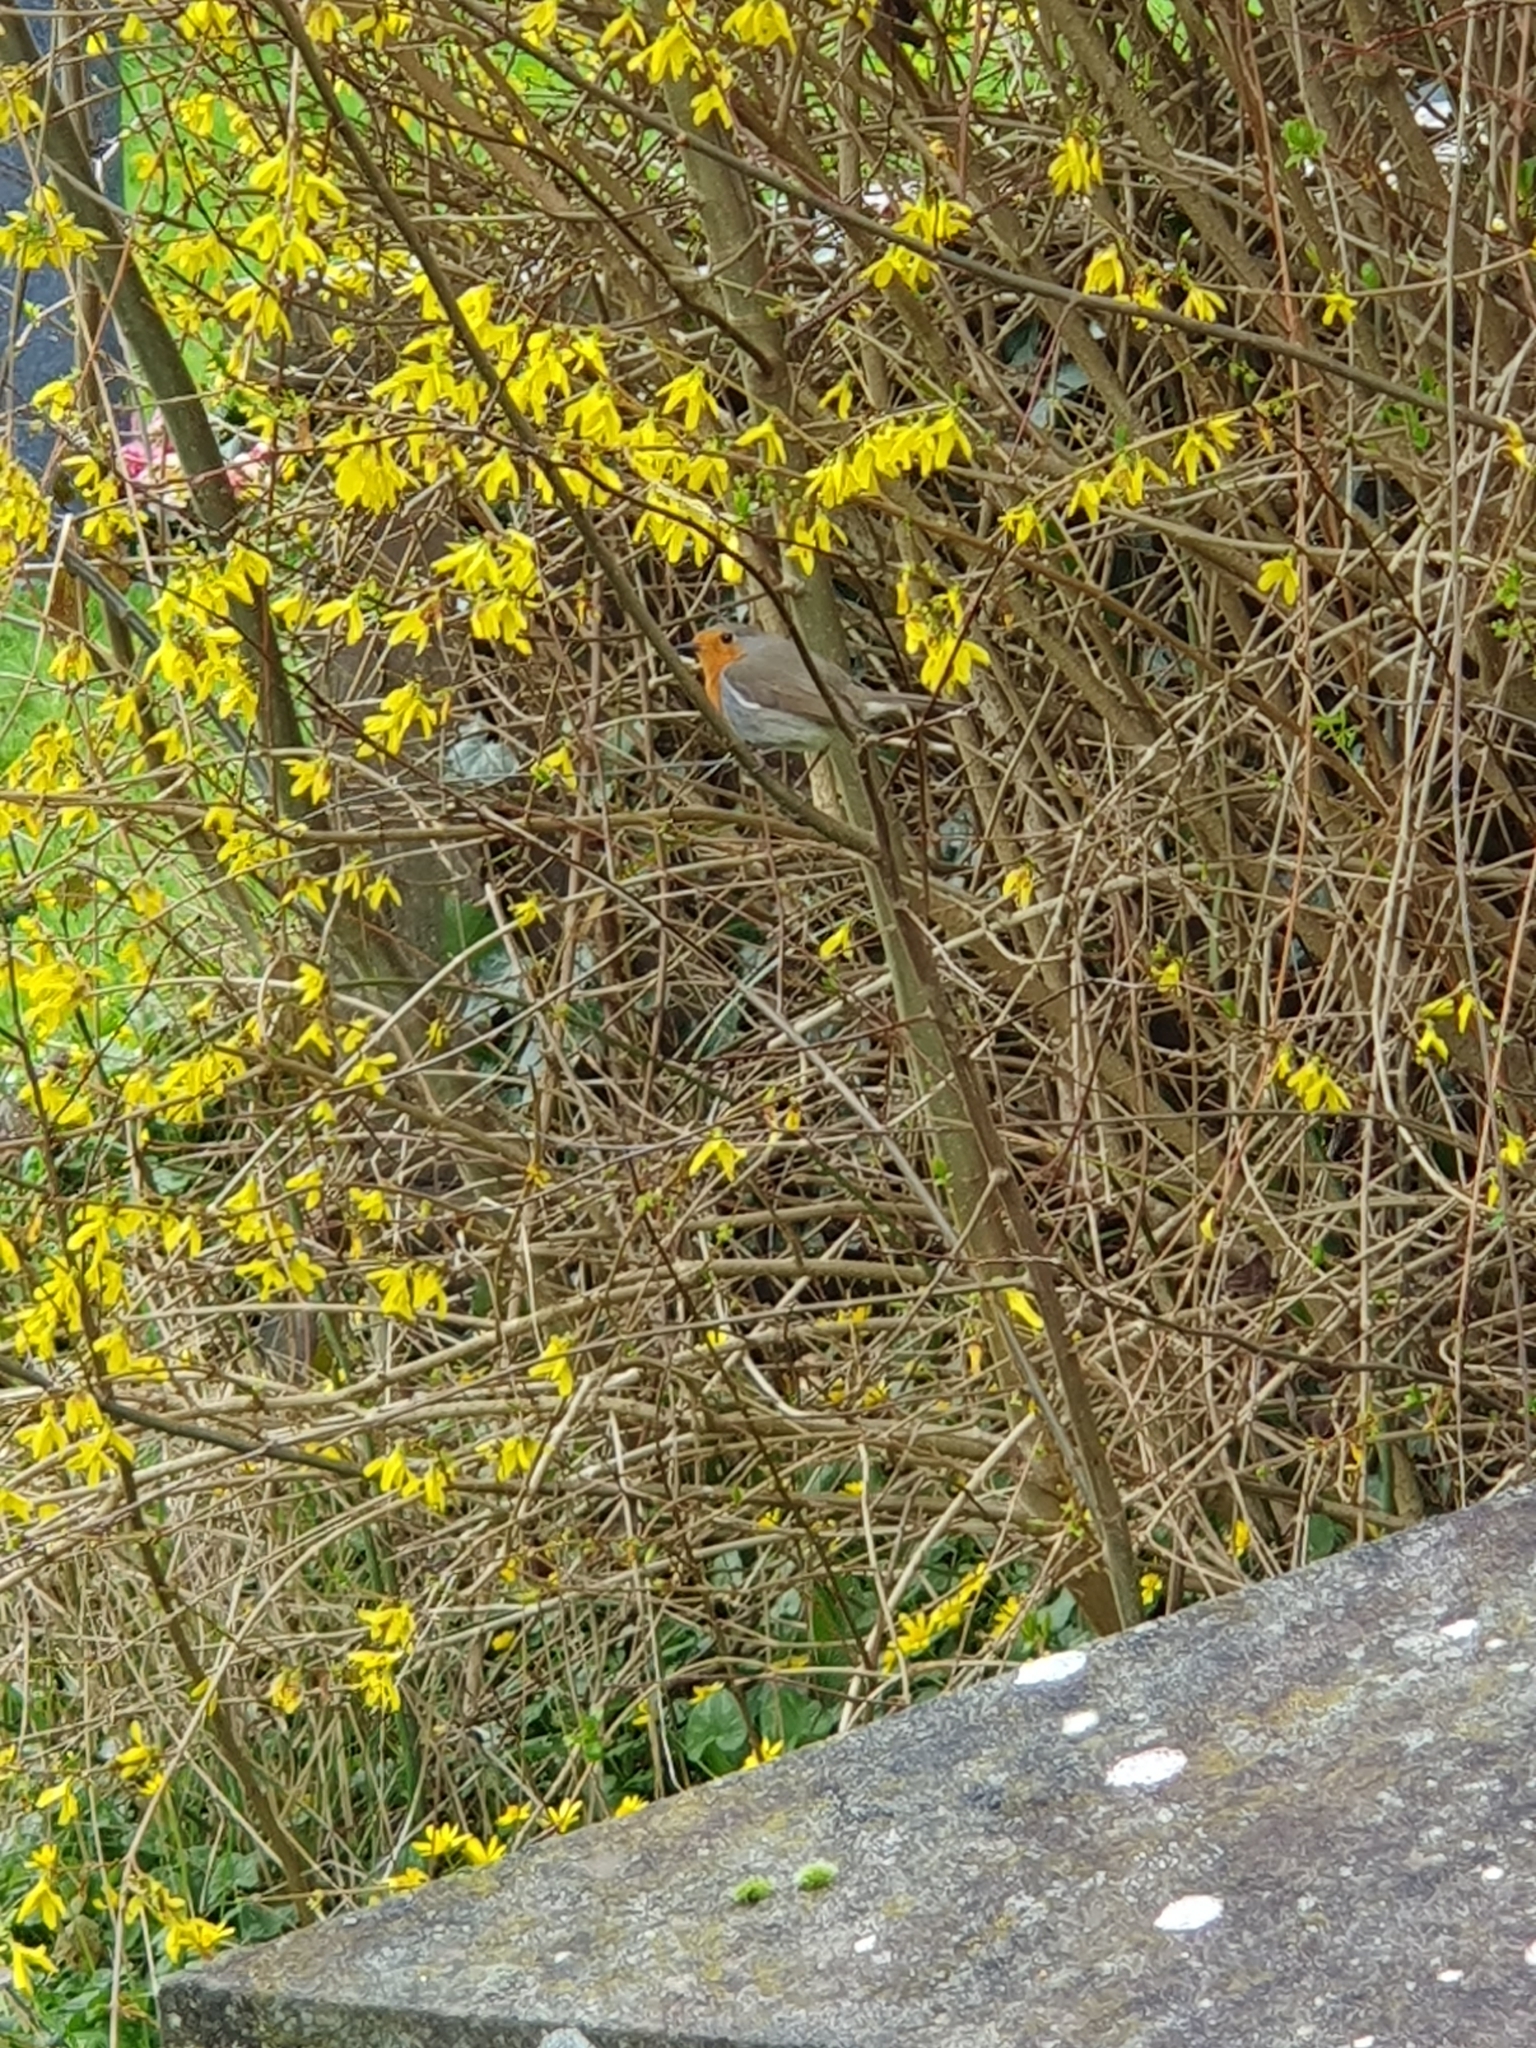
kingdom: Animalia
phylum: Chordata
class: Aves
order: Passeriformes
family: Muscicapidae
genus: Erithacus
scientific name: Erithacus rubecula
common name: European robin
